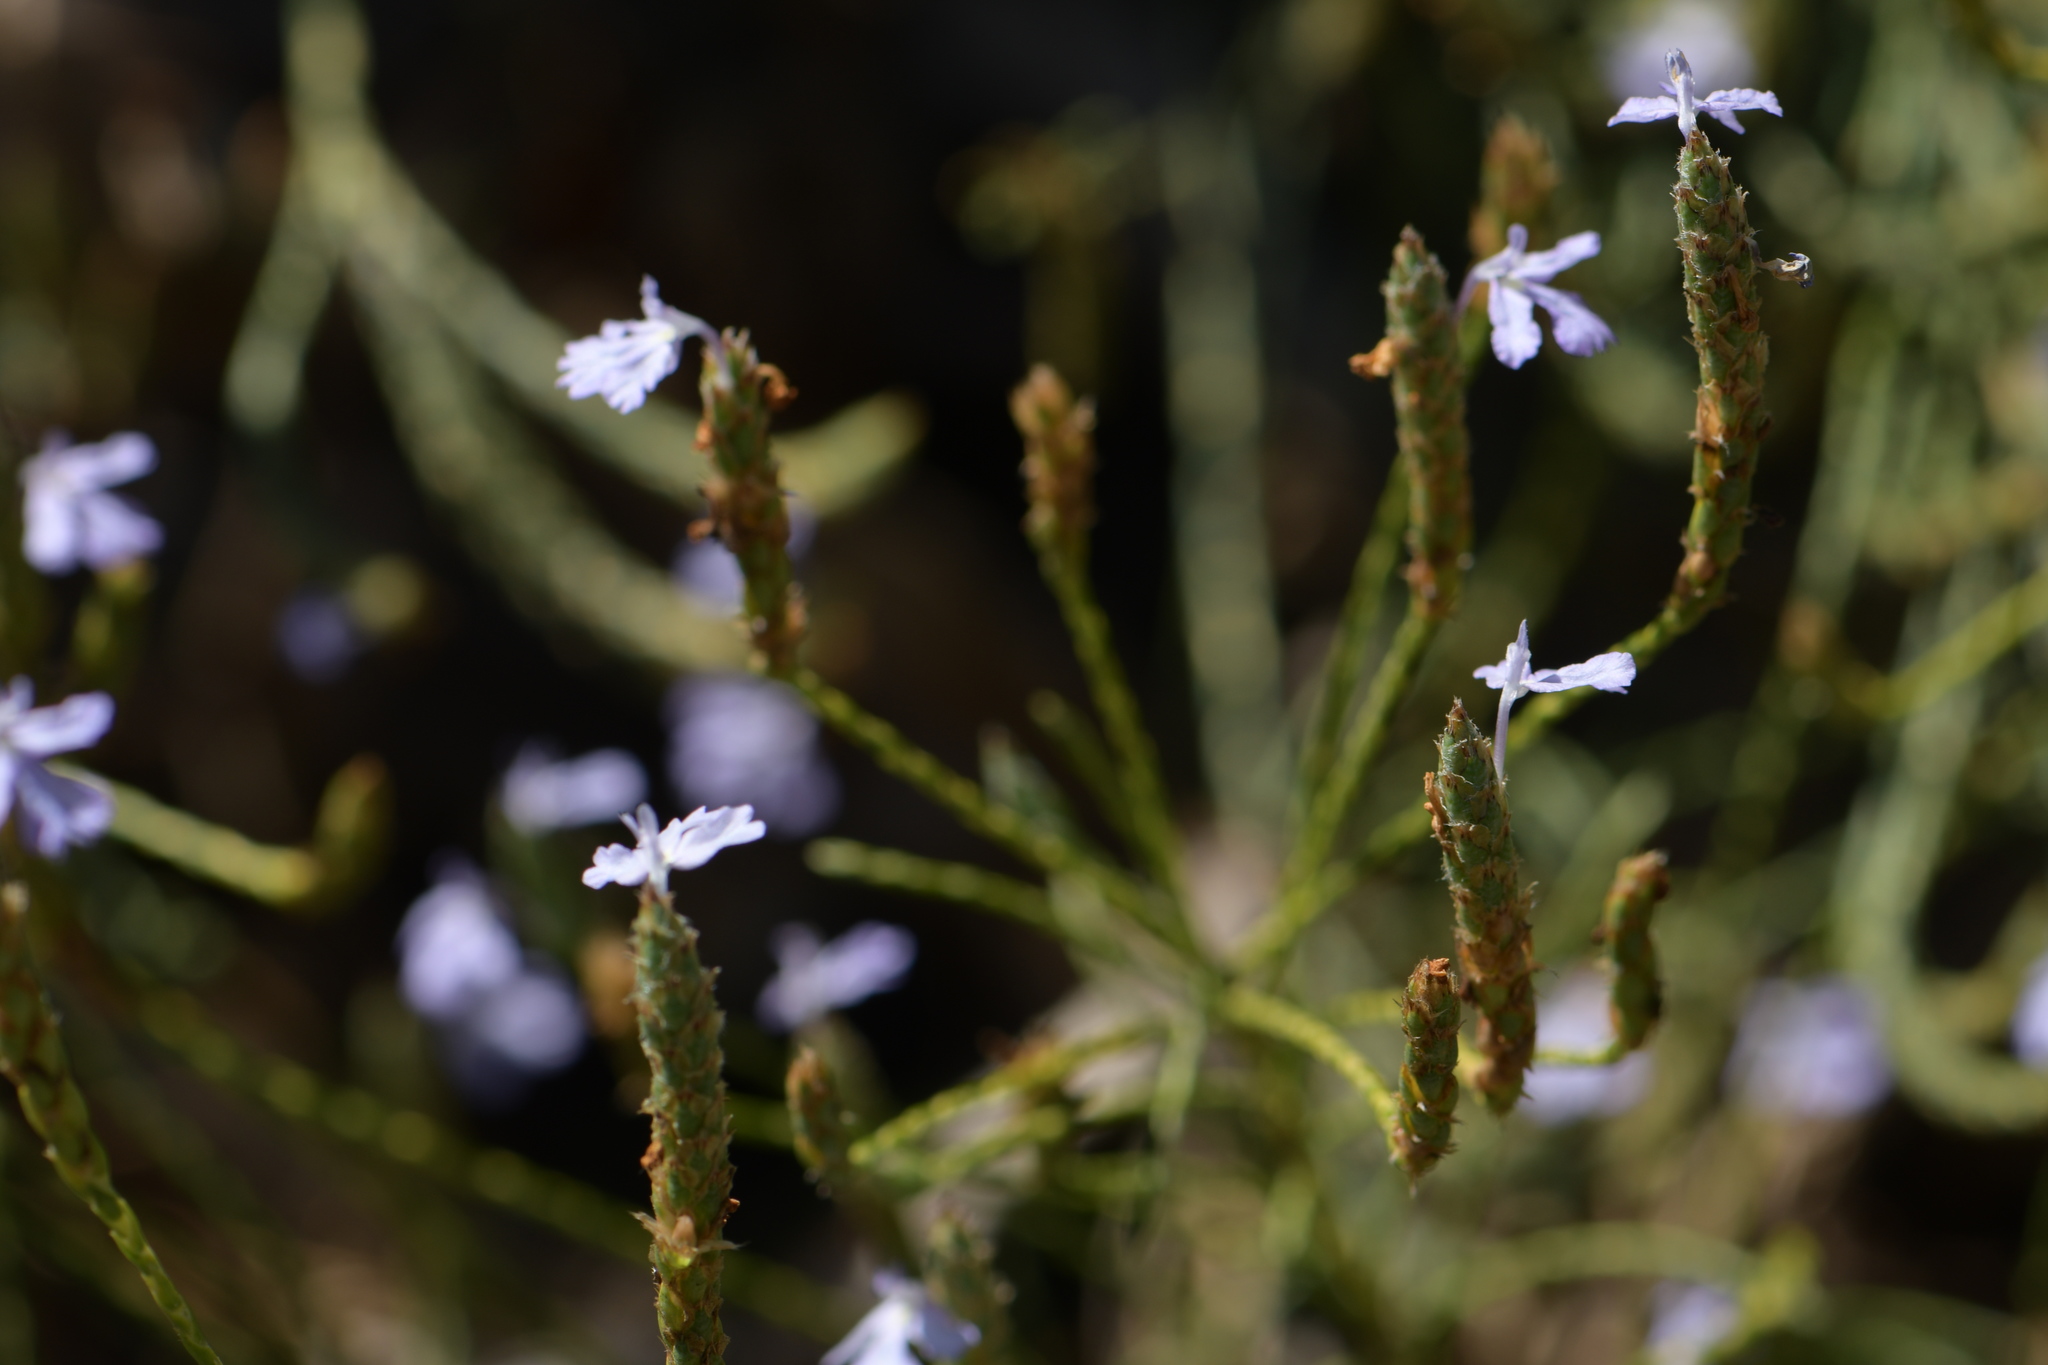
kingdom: Plantae
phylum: Tracheophyta
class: Magnoliopsida
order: Lamiales
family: Acanthaceae
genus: Elytraria
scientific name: Elytraria imbricata
